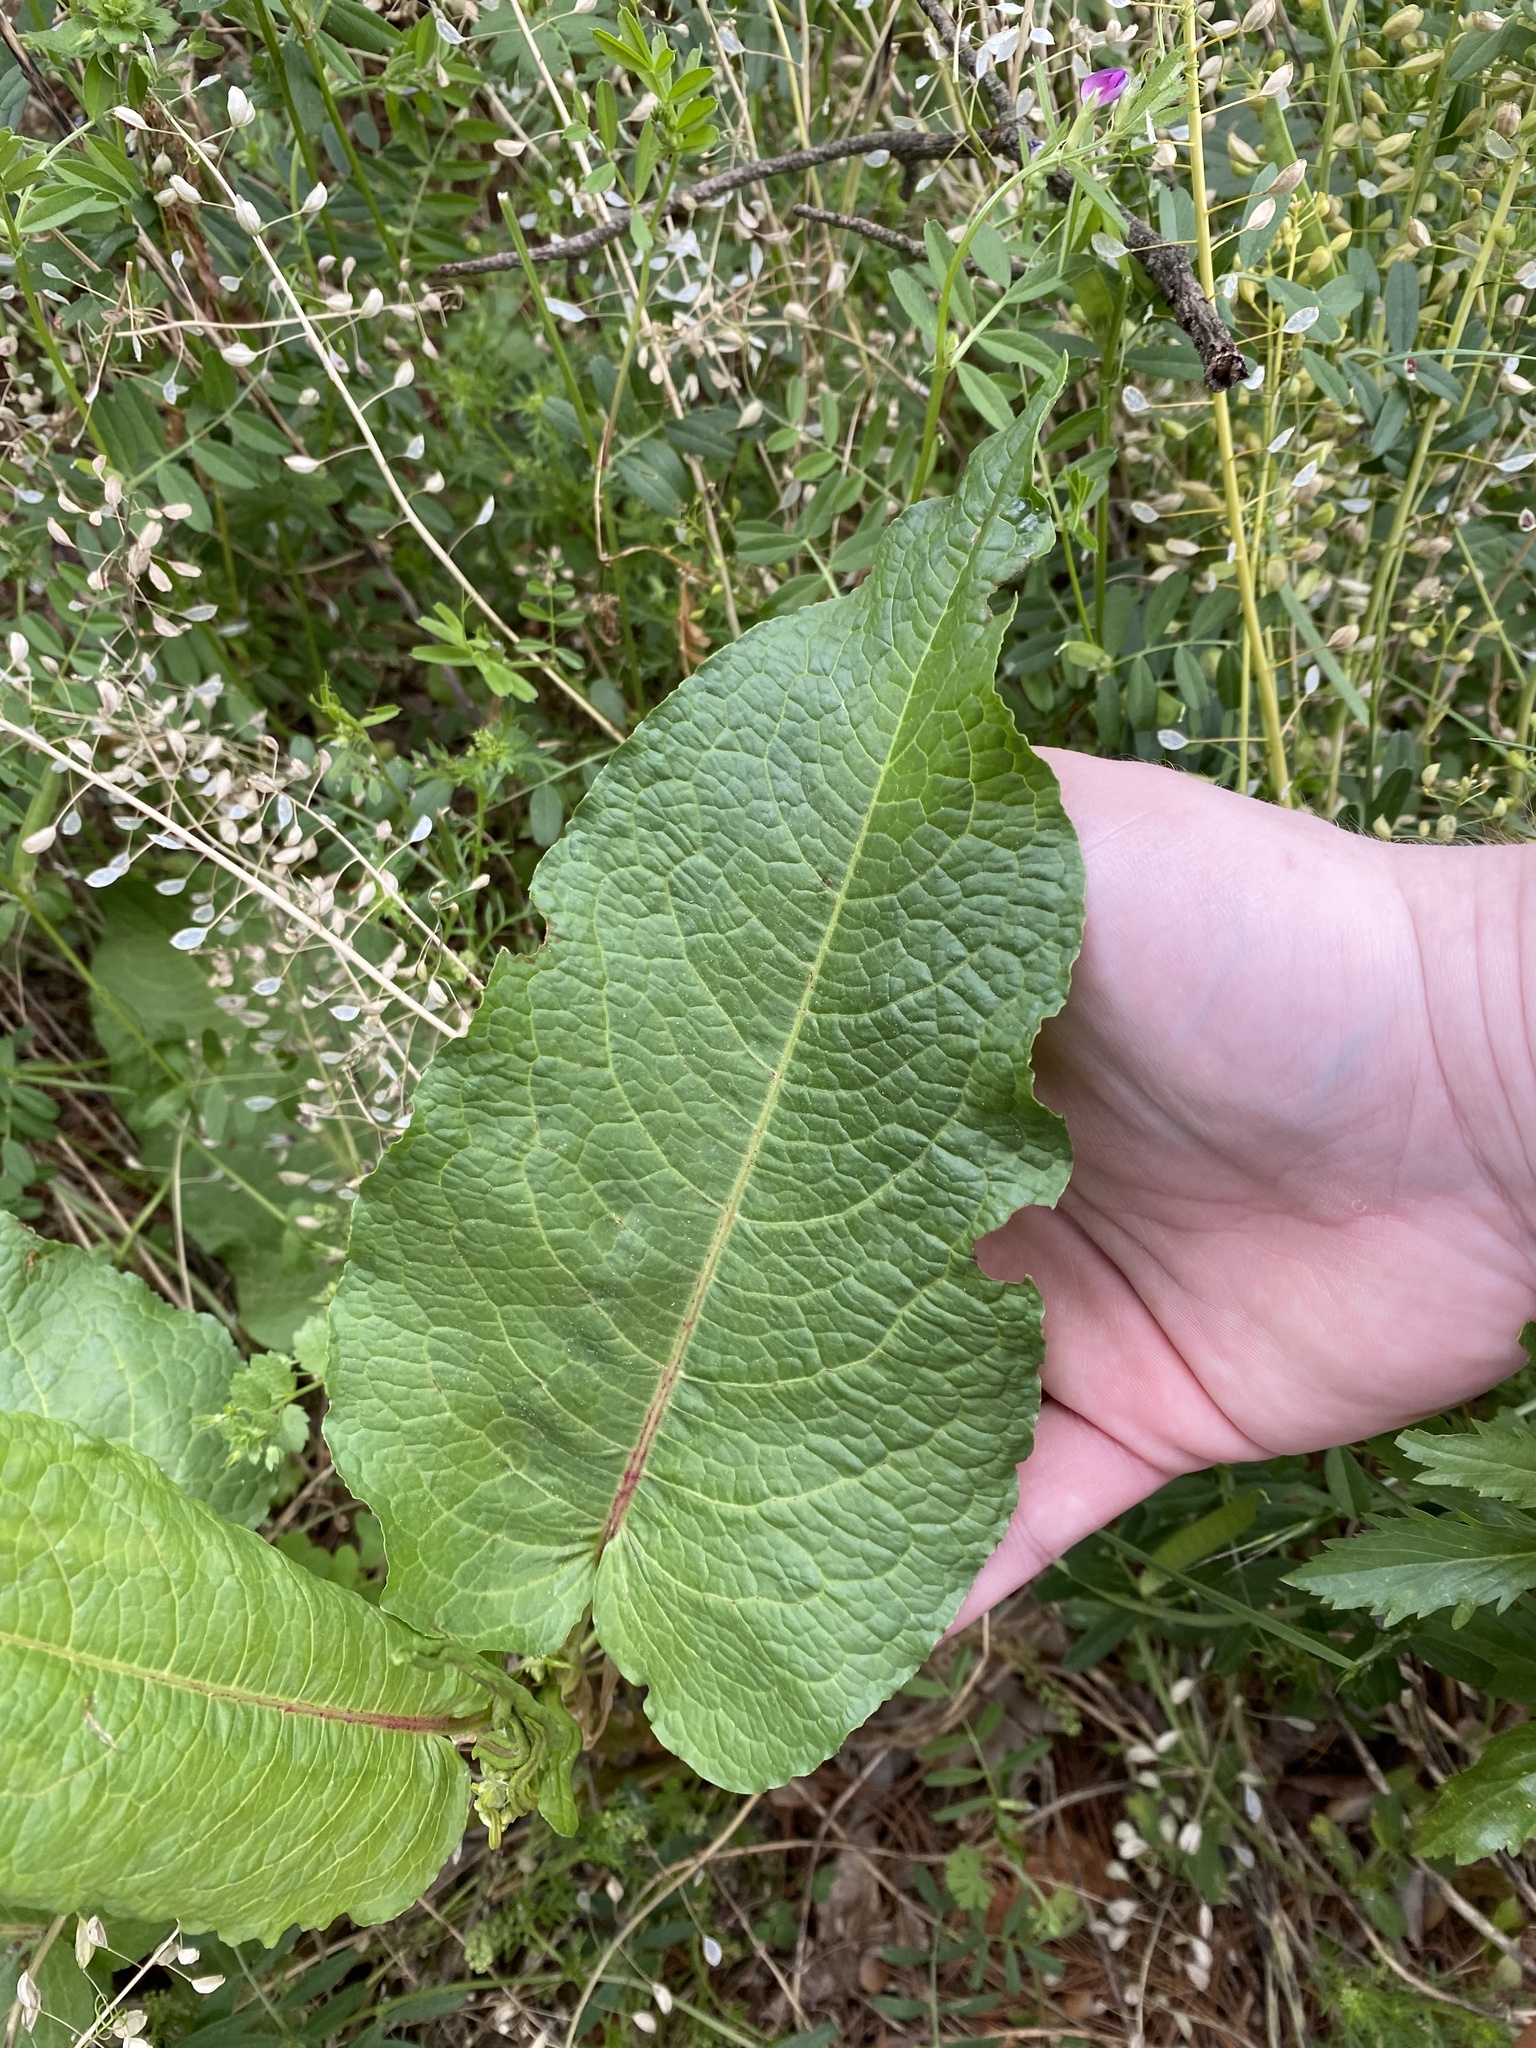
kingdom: Plantae
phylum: Tracheophyta
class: Magnoliopsida
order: Caryophyllales
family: Polygonaceae
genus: Rumex
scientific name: Rumex obtusifolius
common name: Bitter dock
